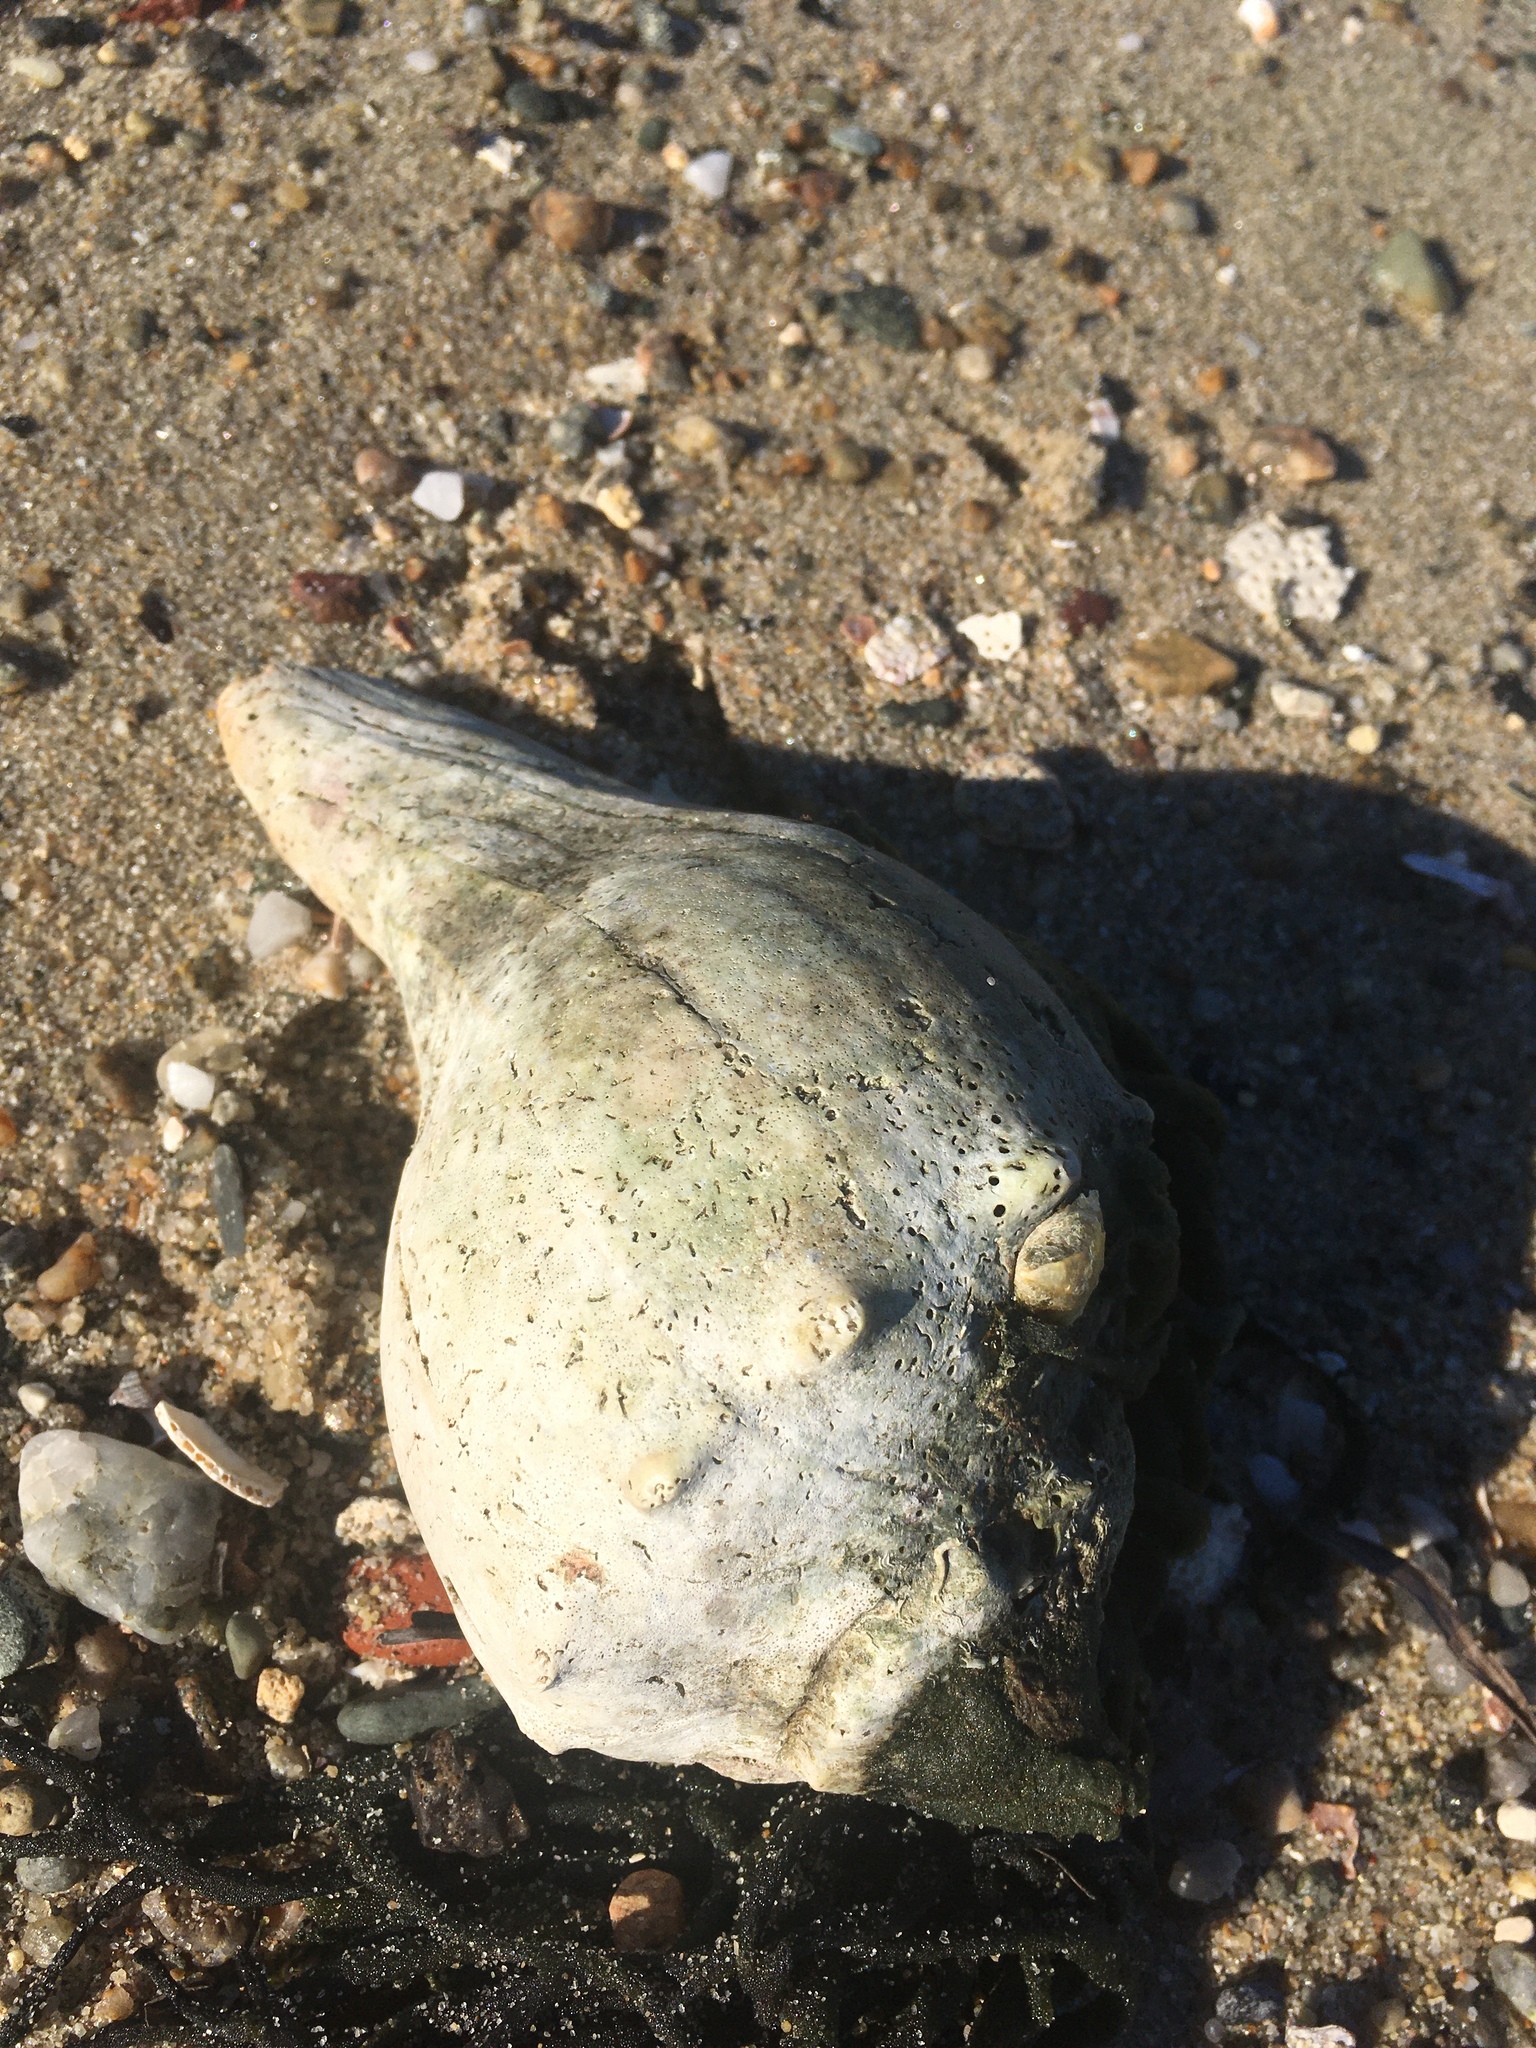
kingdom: Animalia
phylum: Mollusca
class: Gastropoda
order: Neogastropoda
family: Busyconidae
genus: Busycon
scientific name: Busycon carica
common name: Knobbed whelk
